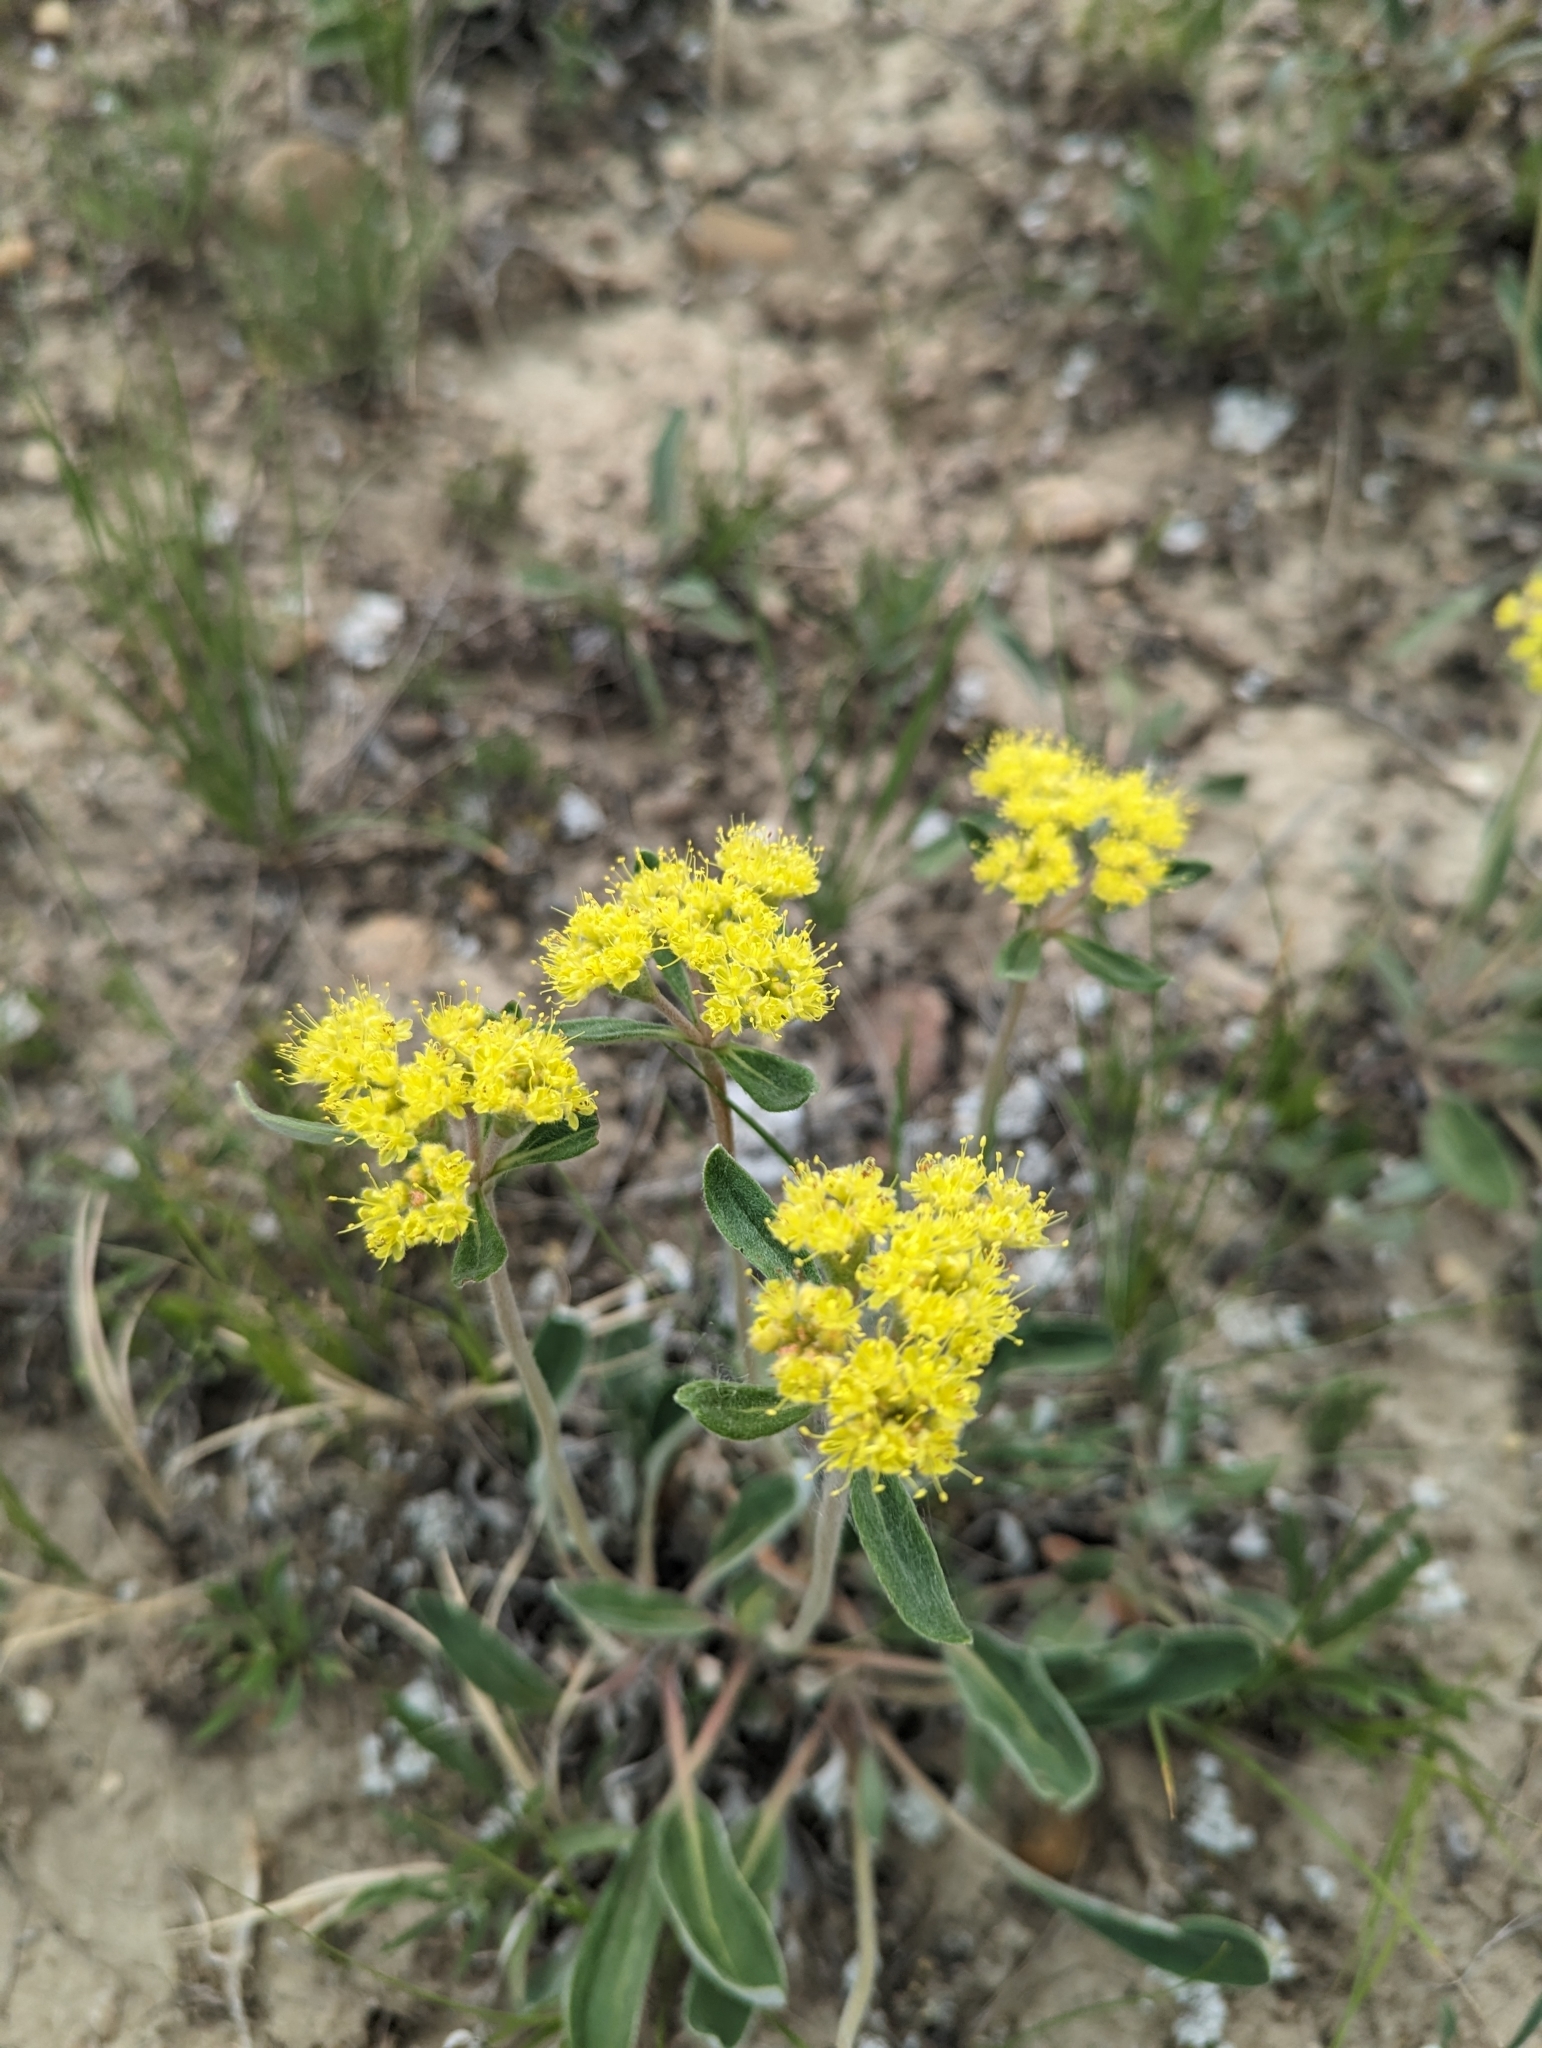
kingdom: Plantae
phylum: Tracheophyta
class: Magnoliopsida
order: Caryophyllales
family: Polygonaceae
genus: Eriogonum
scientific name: Eriogonum flavum
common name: Alpine golden wild buckwheat
